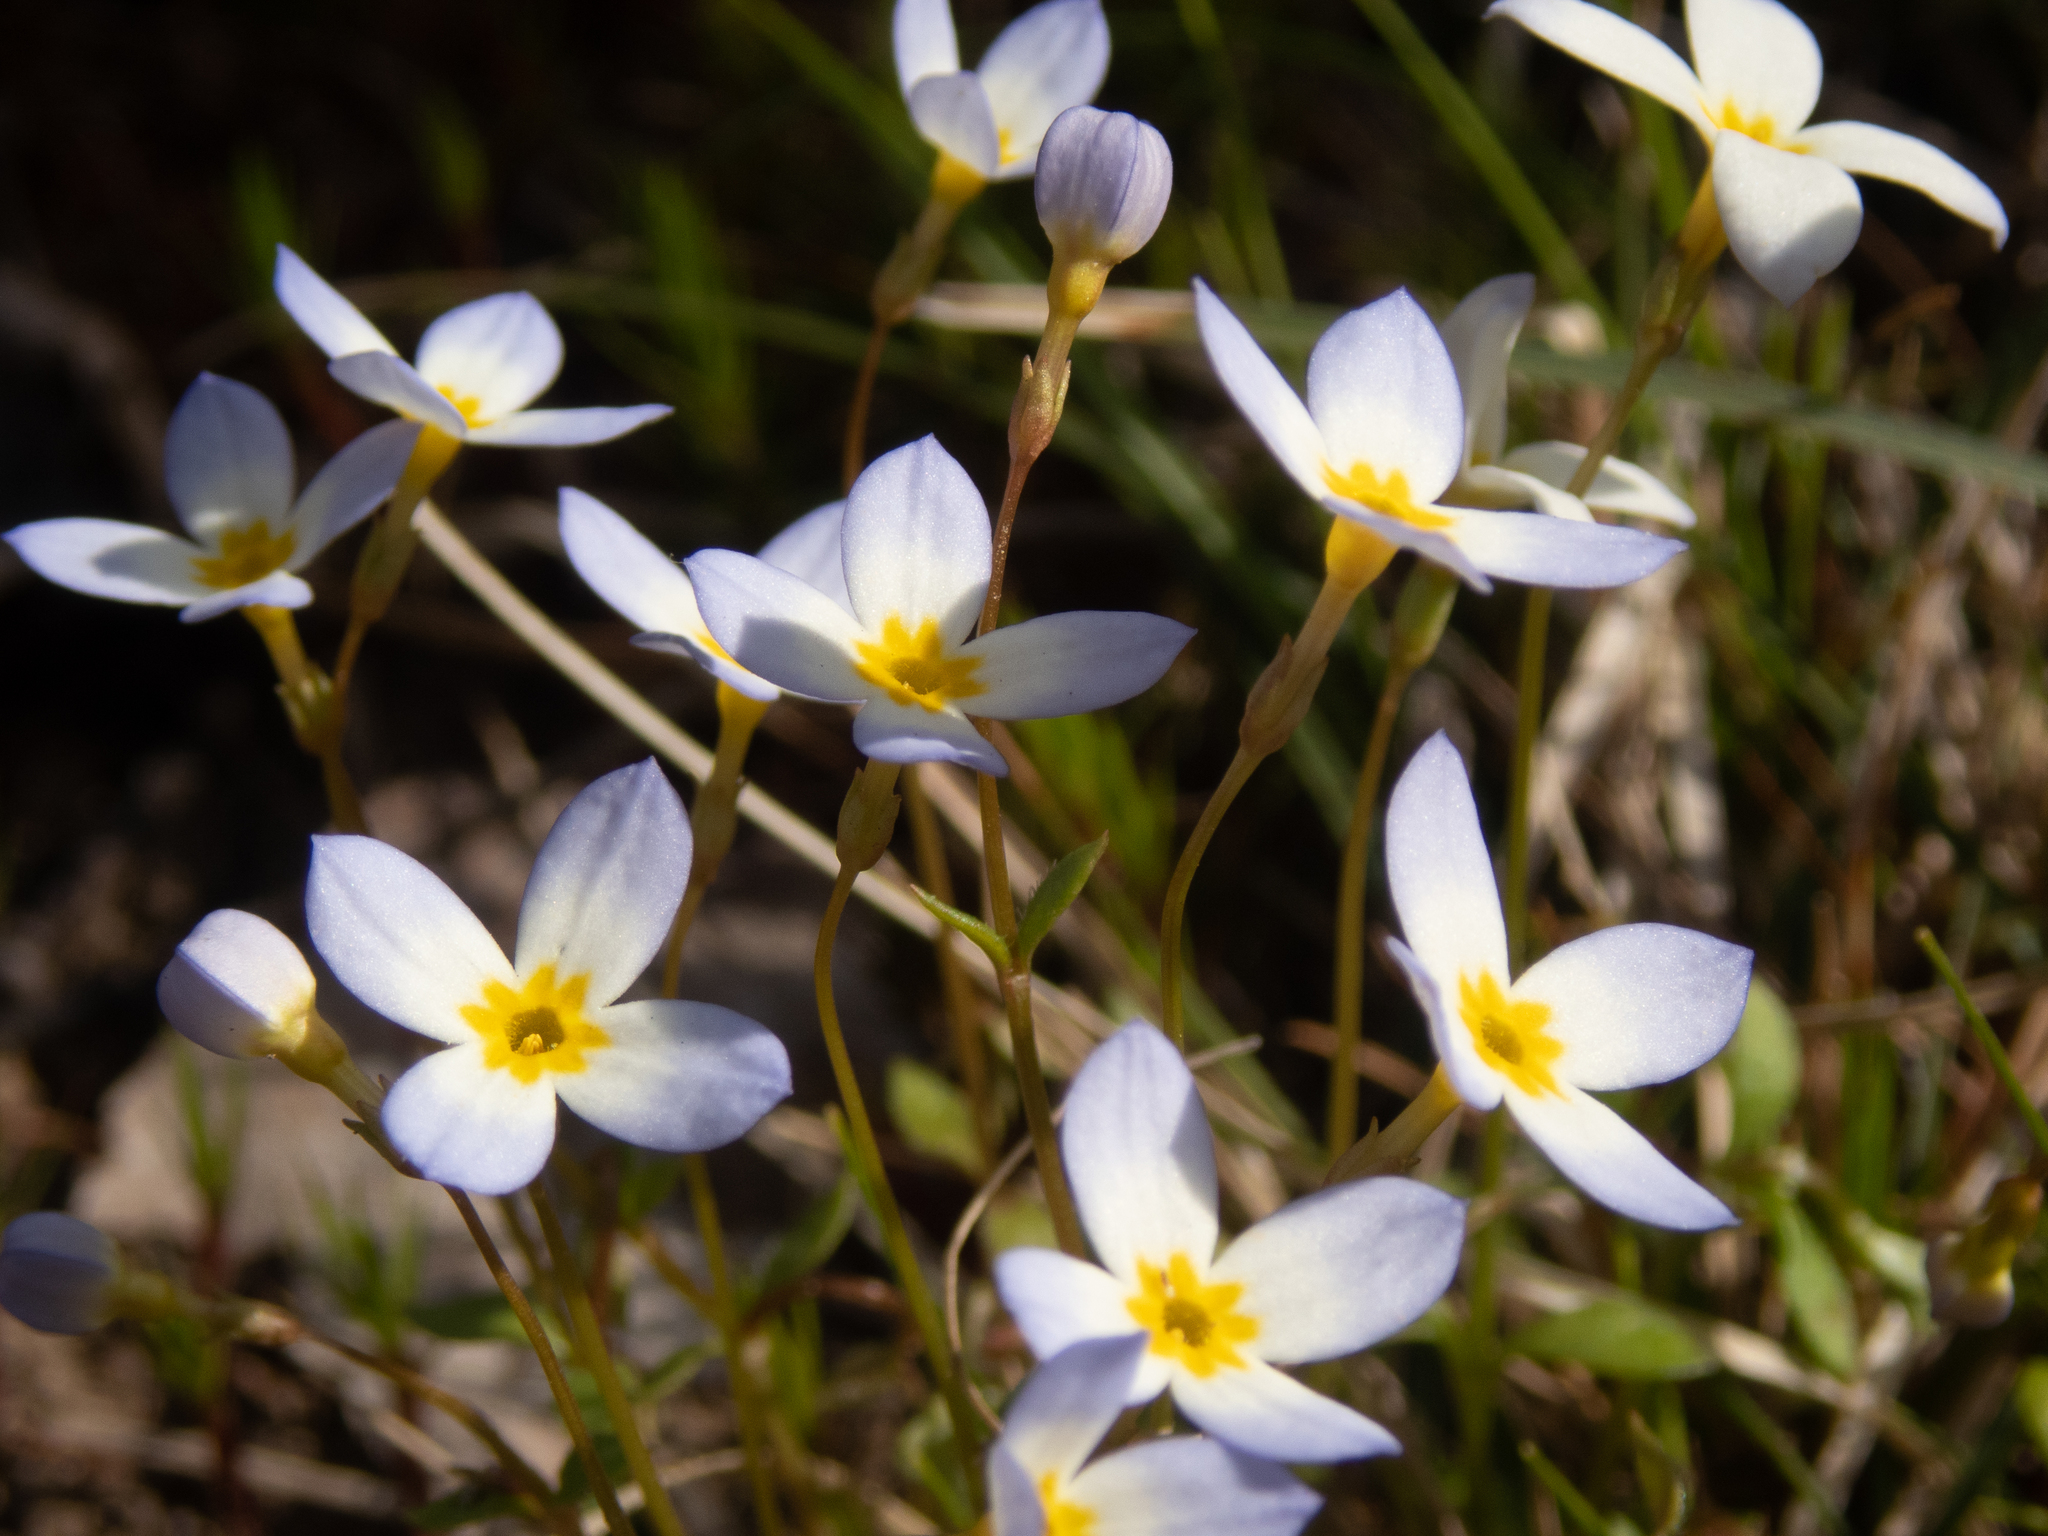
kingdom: Plantae
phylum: Tracheophyta
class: Magnoliopsida
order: Gentianales
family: Rubiaceae
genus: Houstonia
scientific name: Houstonia caerulea
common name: Bluets
